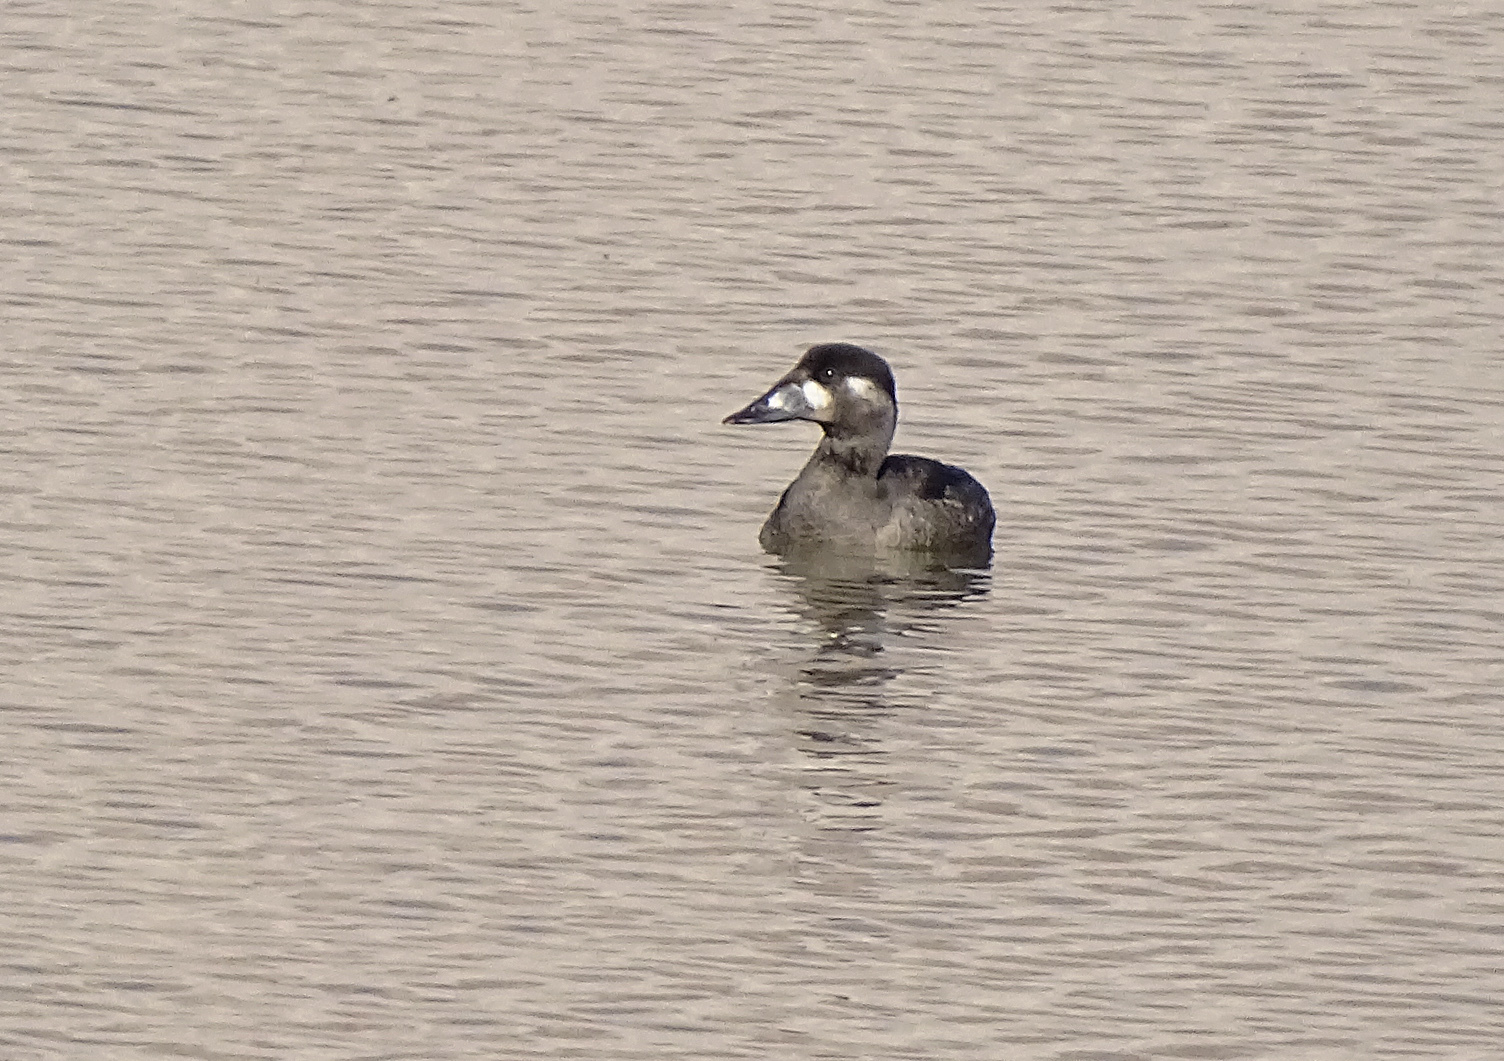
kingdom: Animalia
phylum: Chordata
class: Aves
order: Anseriformes
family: Anatidae
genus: Melanitta
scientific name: Melanitta perspicillata
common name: Surf scoter
